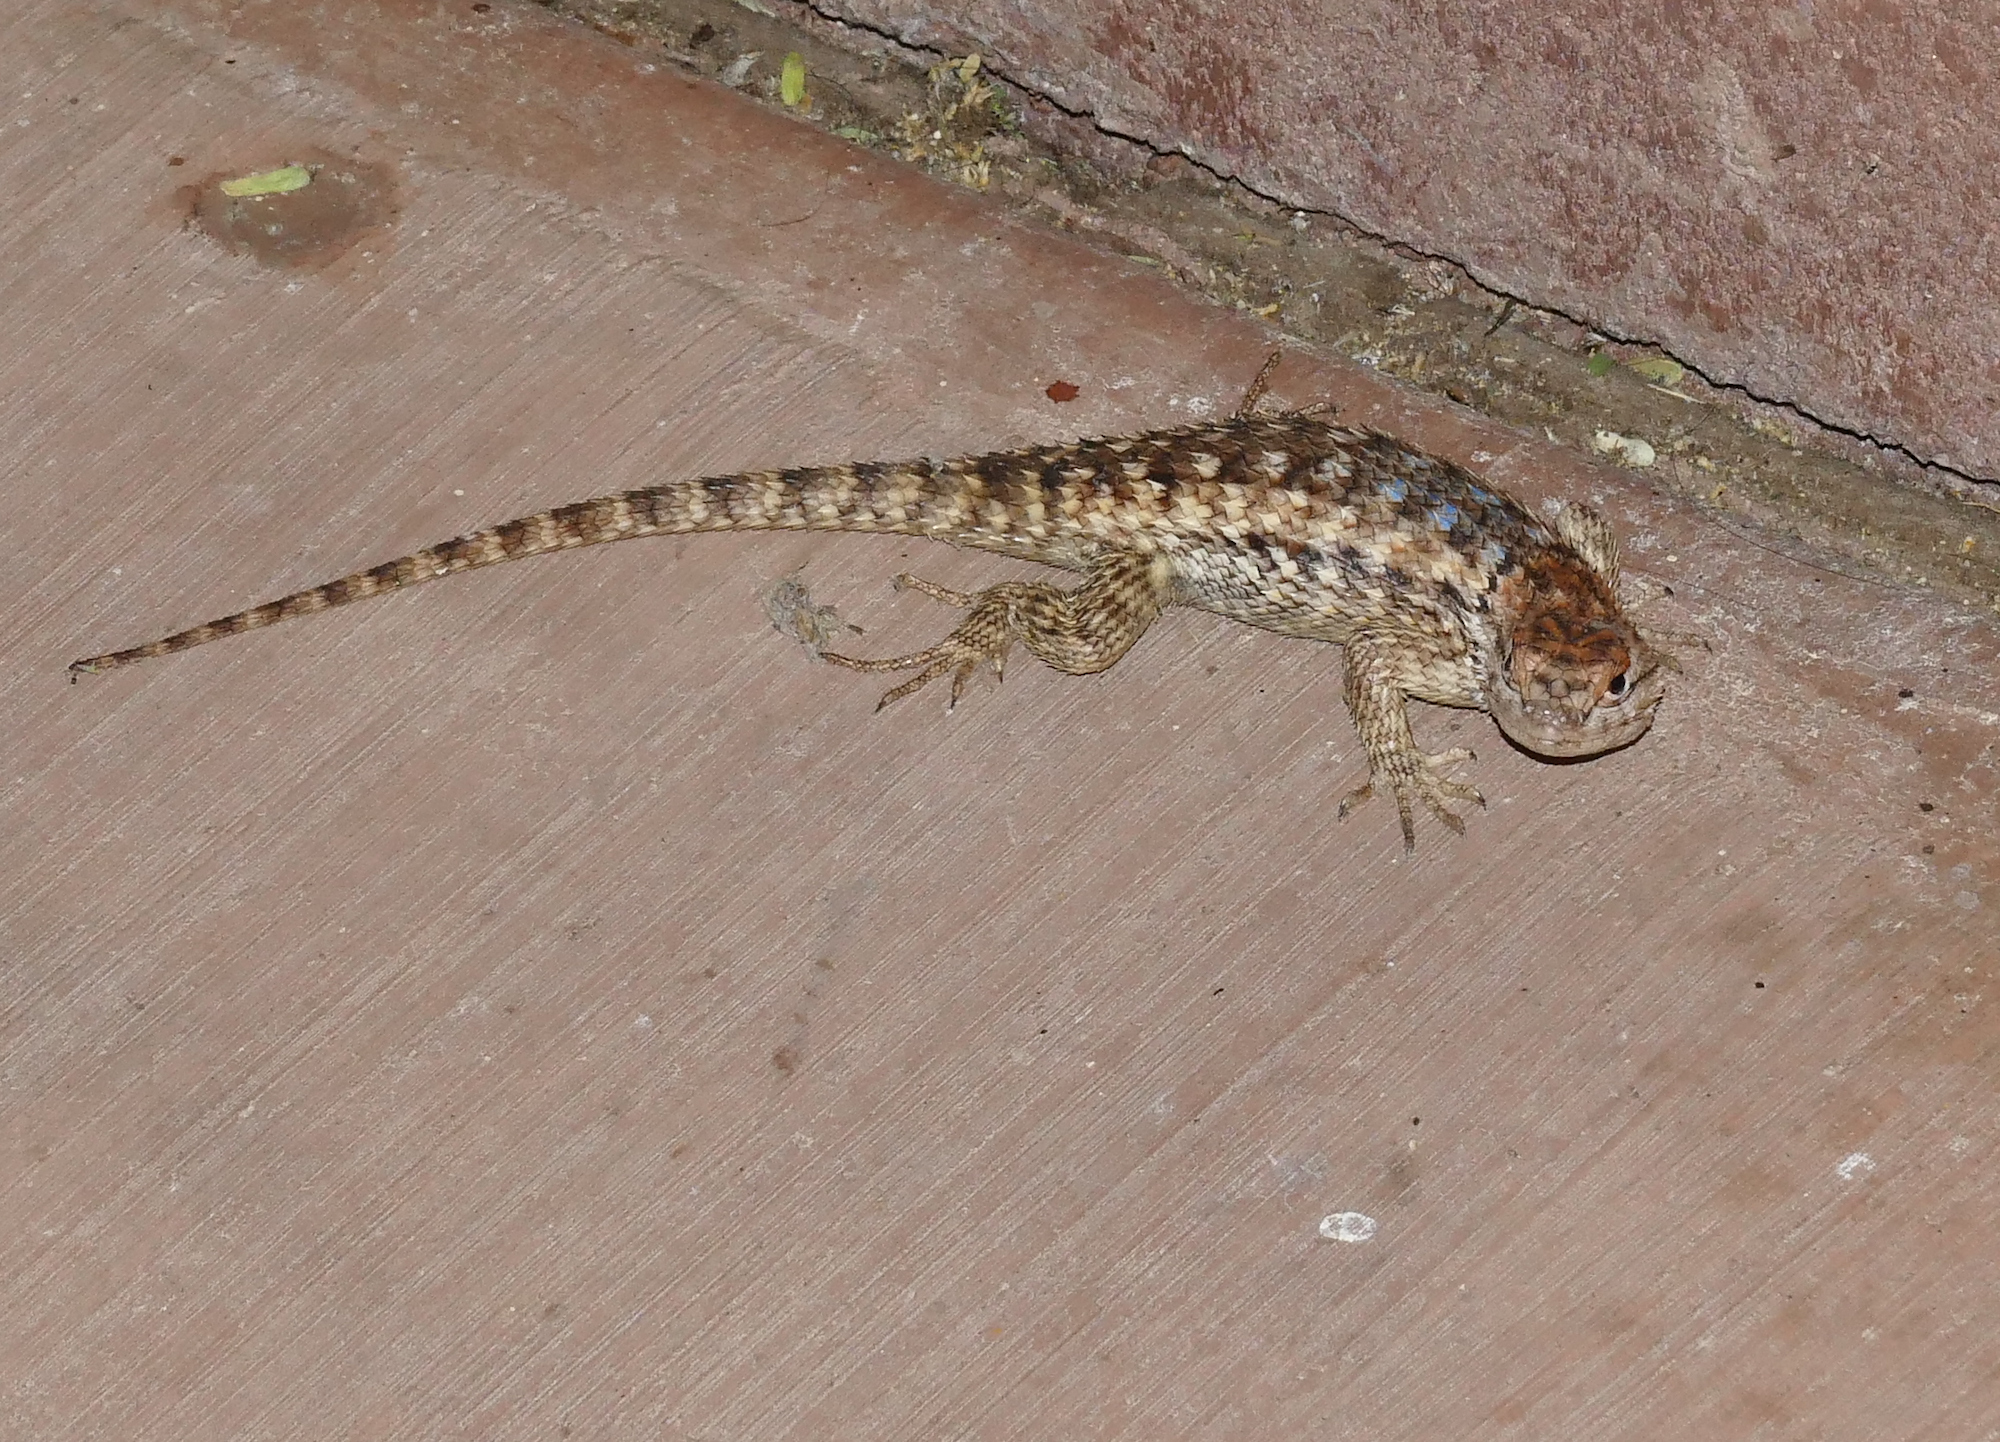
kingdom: Animalia
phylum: Chordata
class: Squamata
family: Phrynosomatidae
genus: Sceloporus
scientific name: Sceloporus magister
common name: Desert spiny lizard
